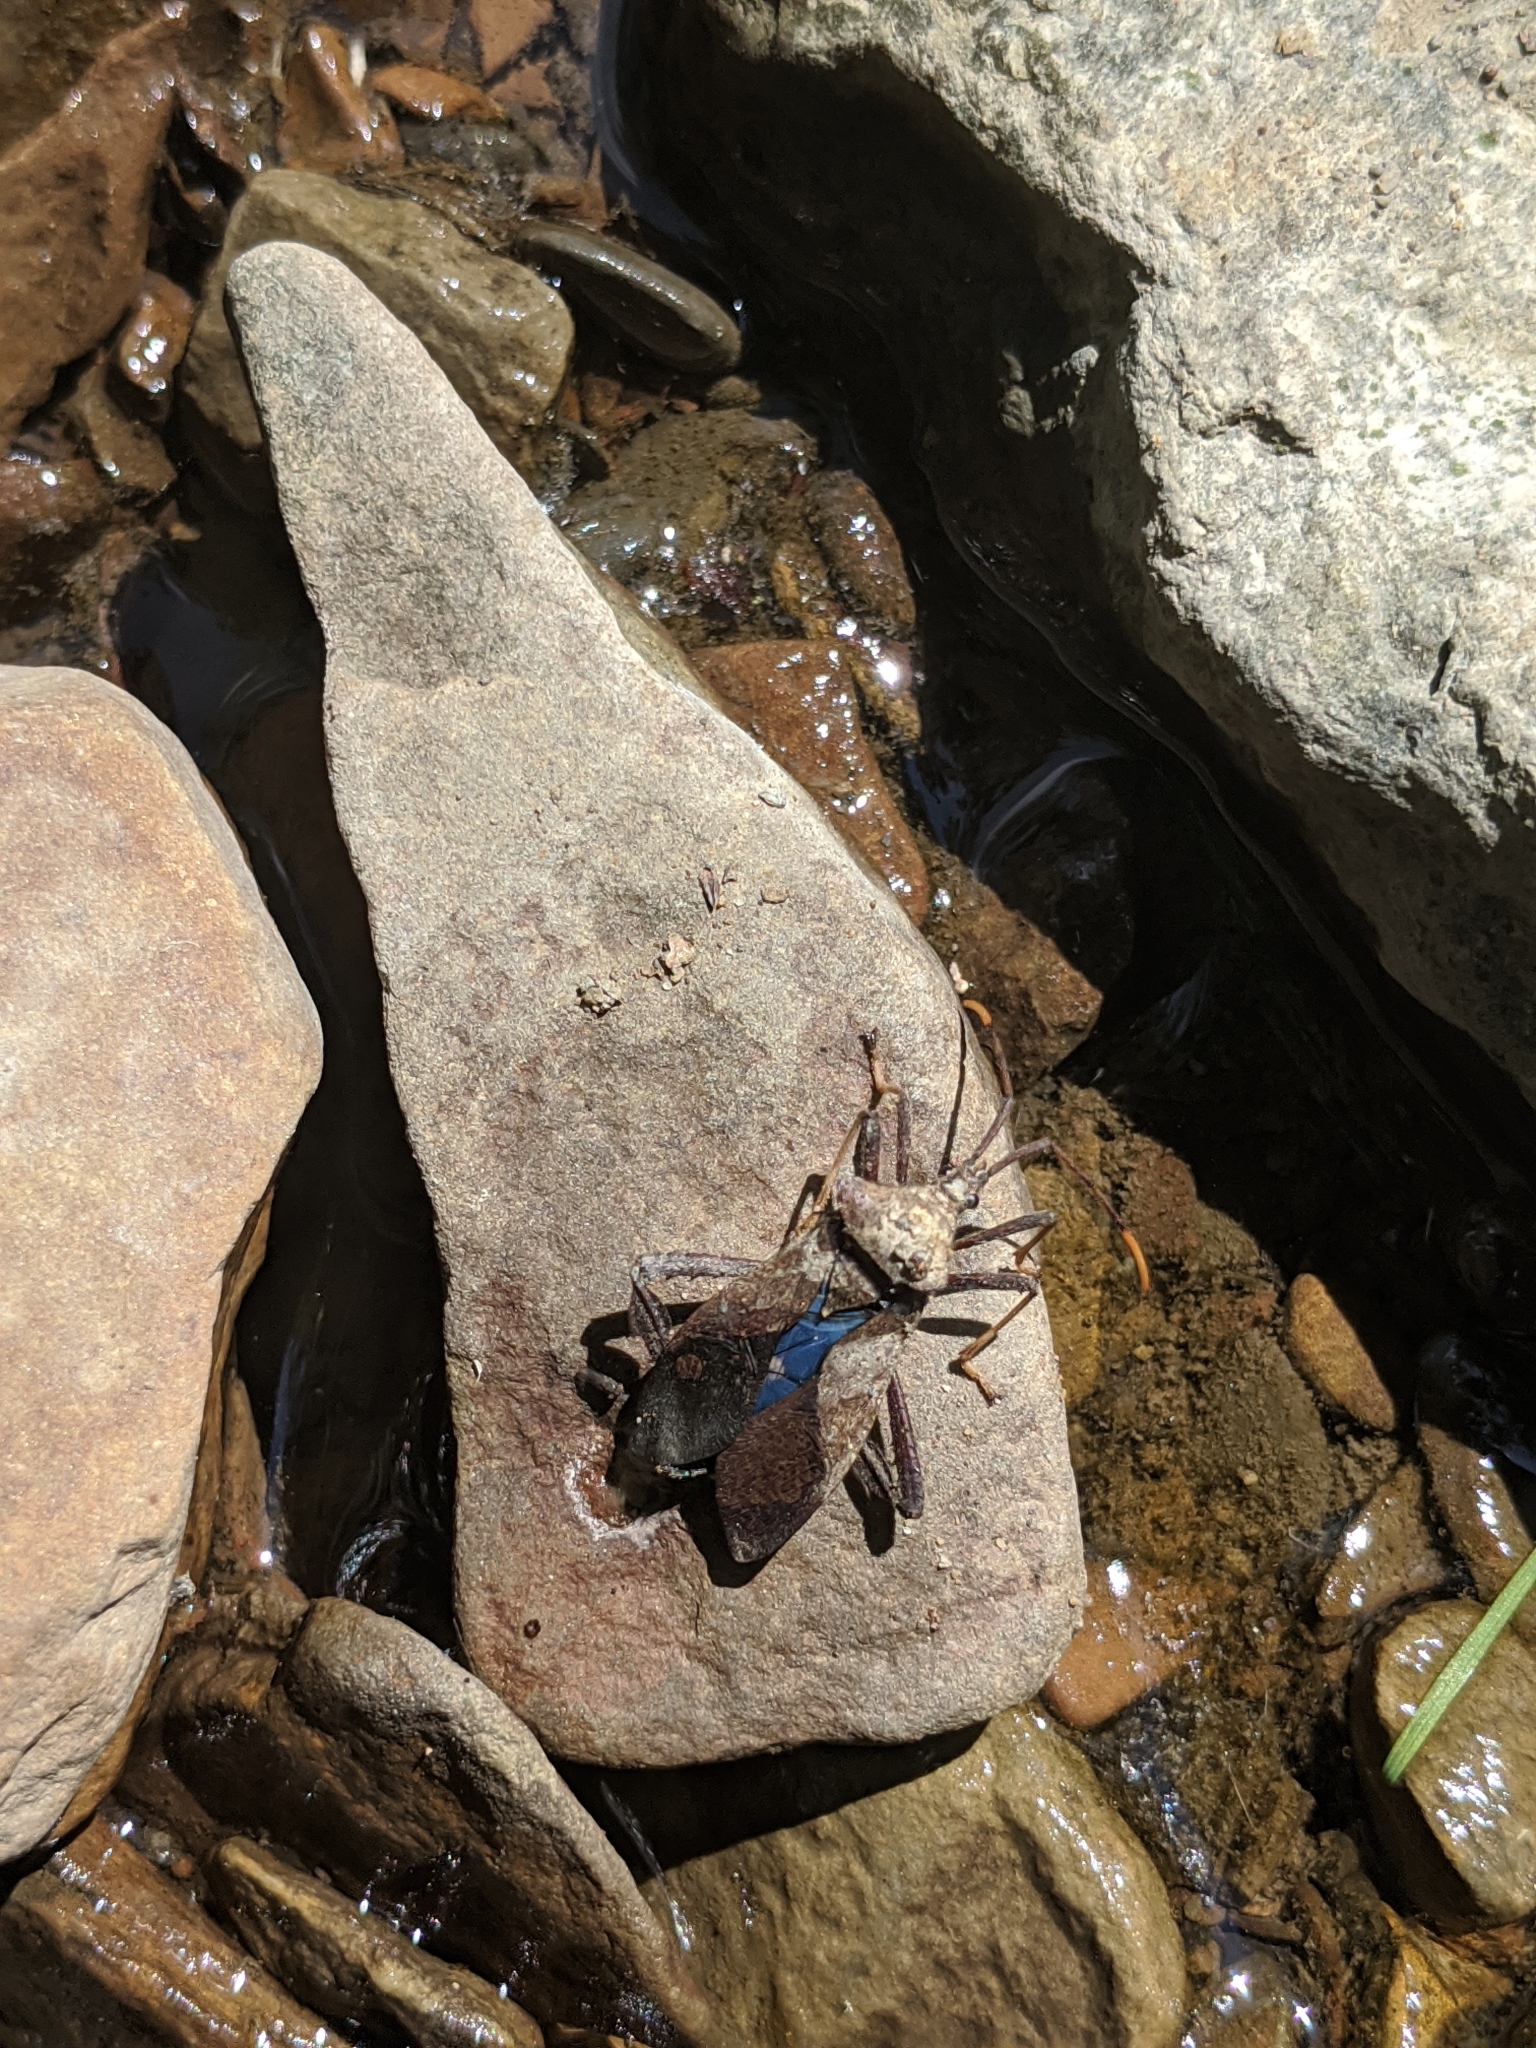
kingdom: Animalia
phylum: Arthropoda
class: Insecta
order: Hemiptera
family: Coreidae
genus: Acanthocephala
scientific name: Acanthocephala terminalis
